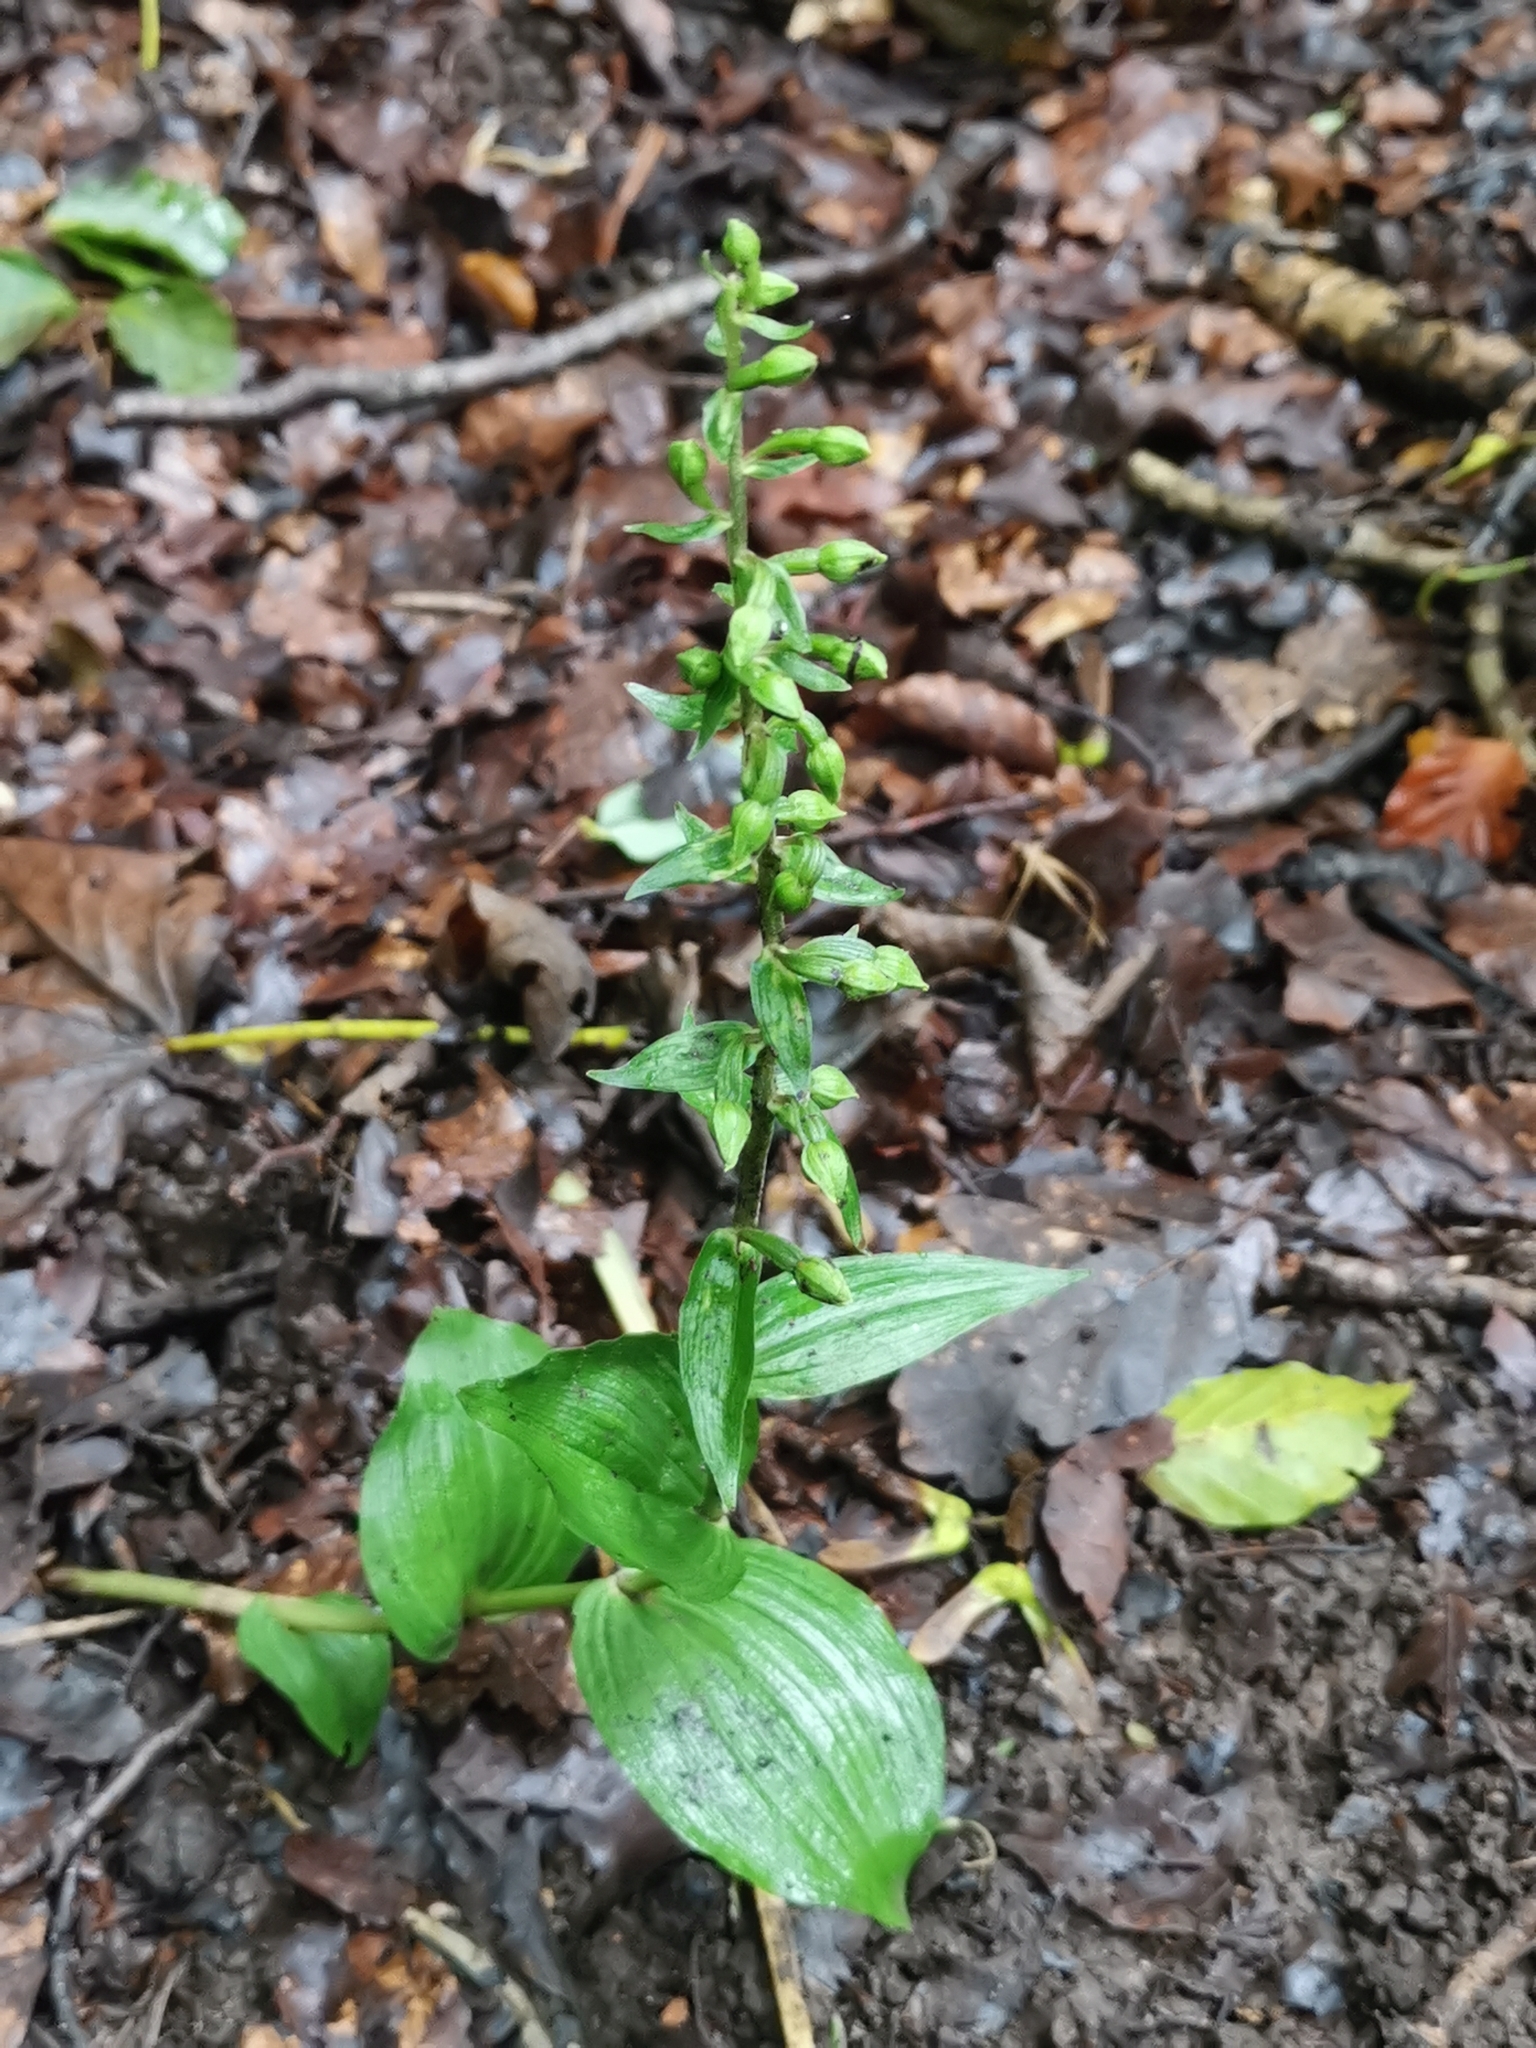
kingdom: Plantae
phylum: Tracheophyta
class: Liliopsida
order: Asparagales
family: Orchidaceae
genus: Epipactis
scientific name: Epipactis helleborine
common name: Broad-leaved helleborine
